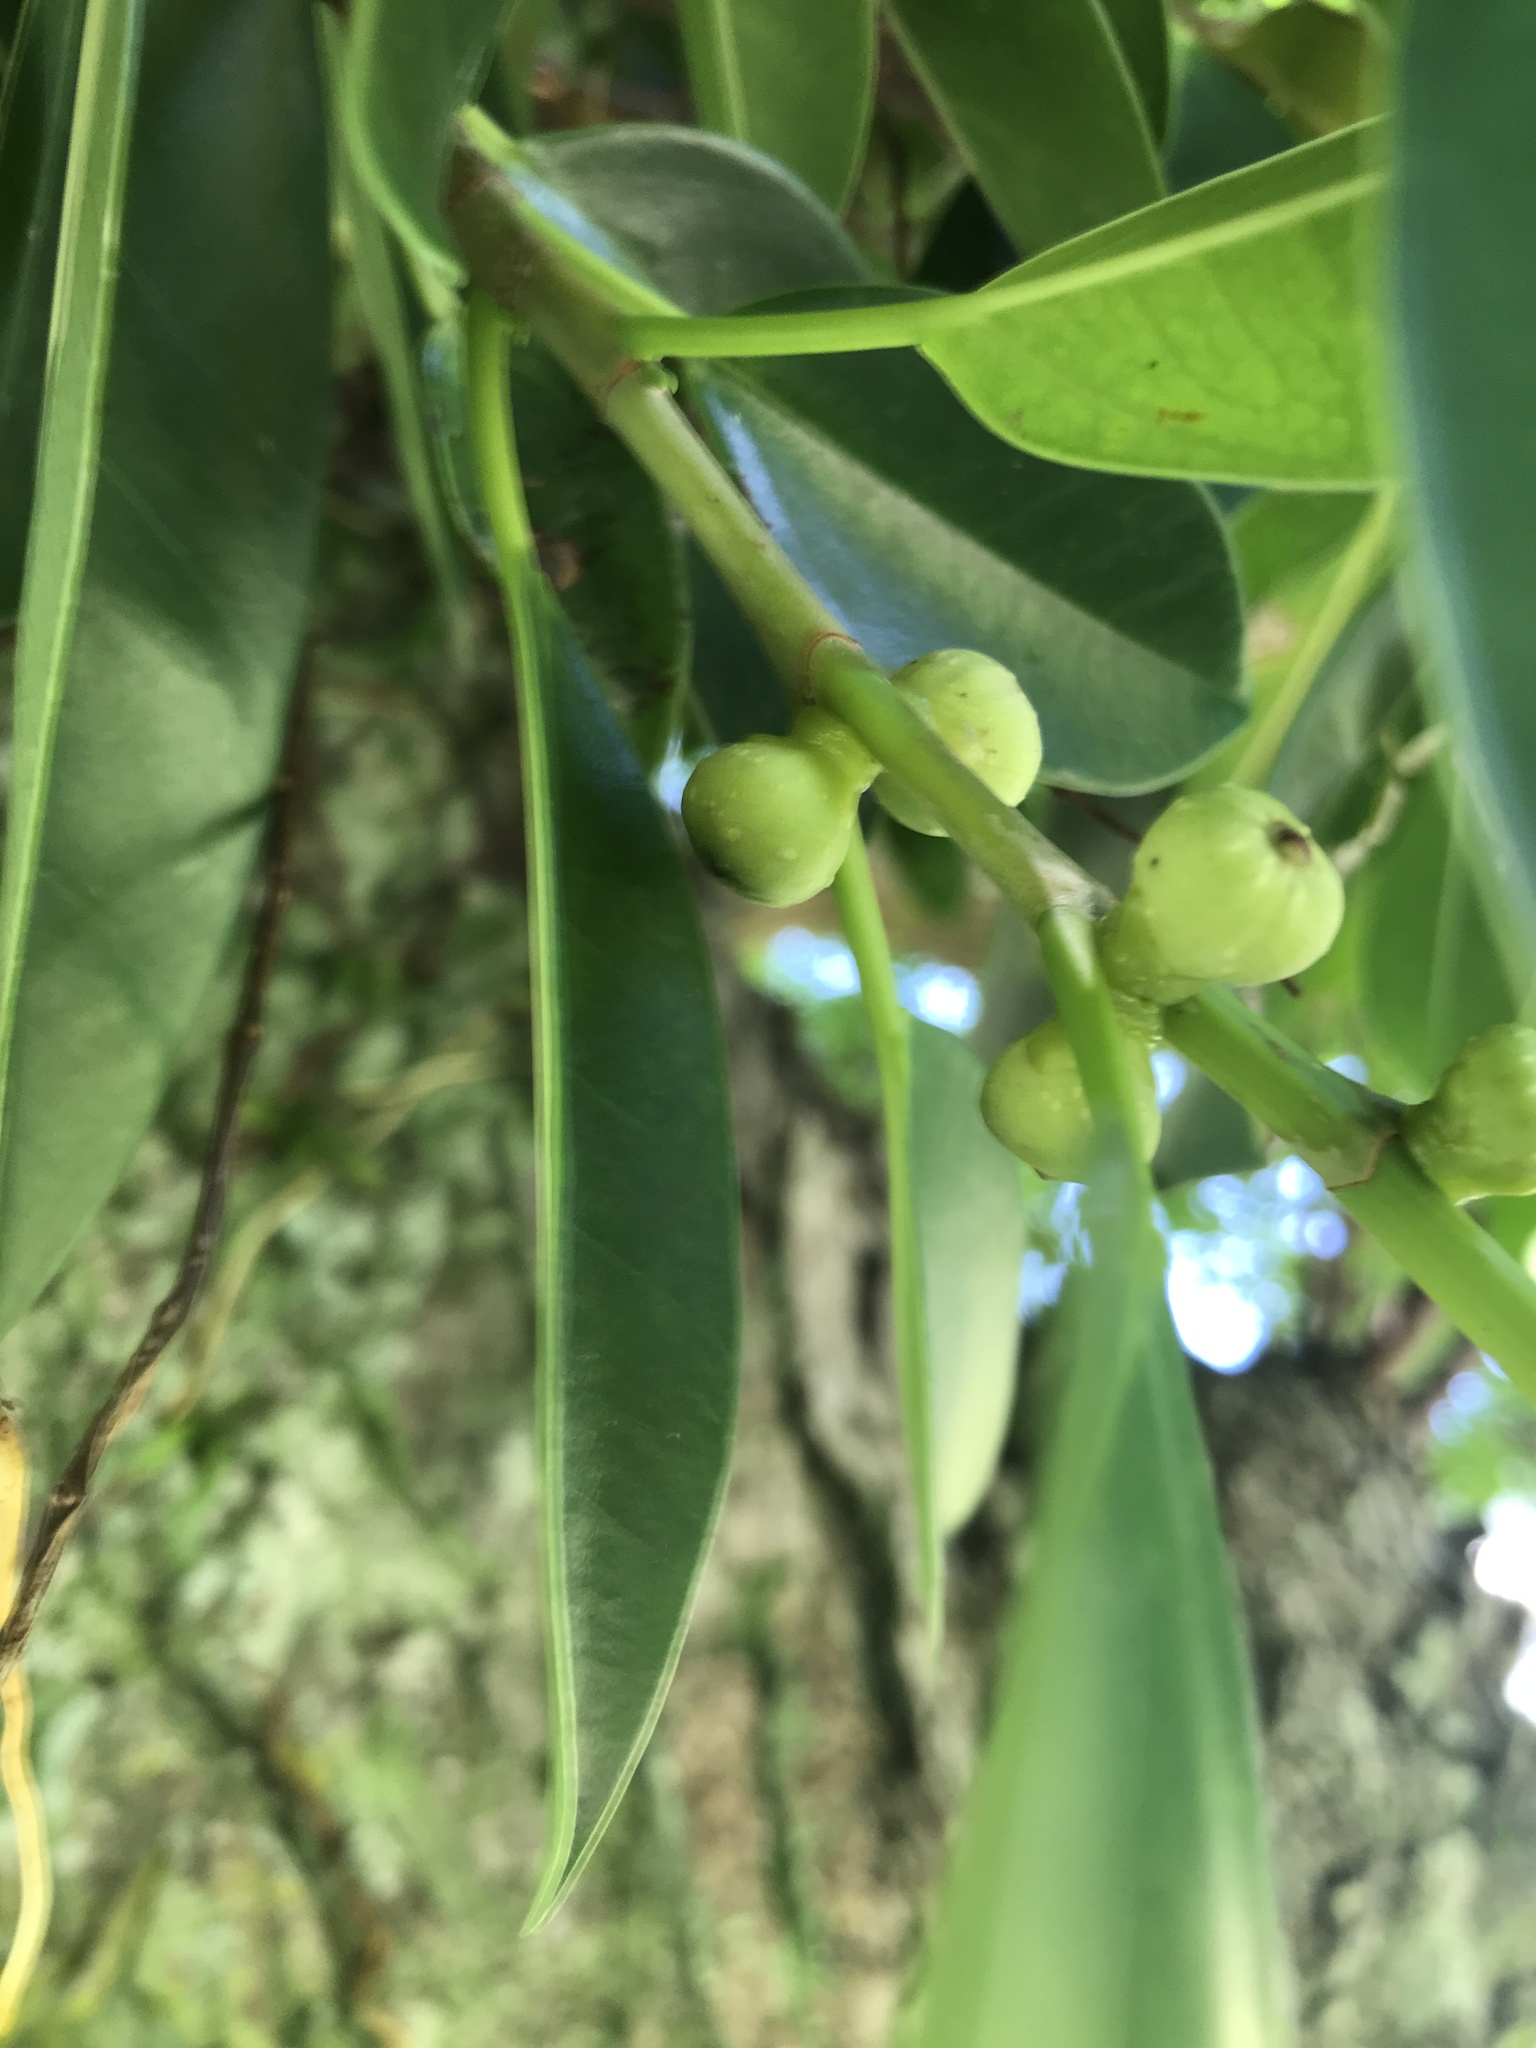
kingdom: Plantae
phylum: Tracheophyta
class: Magnoliopsida
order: Rosales
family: Moraceae
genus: Ficus
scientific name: Ficus microcarpa
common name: Chinese banyan
